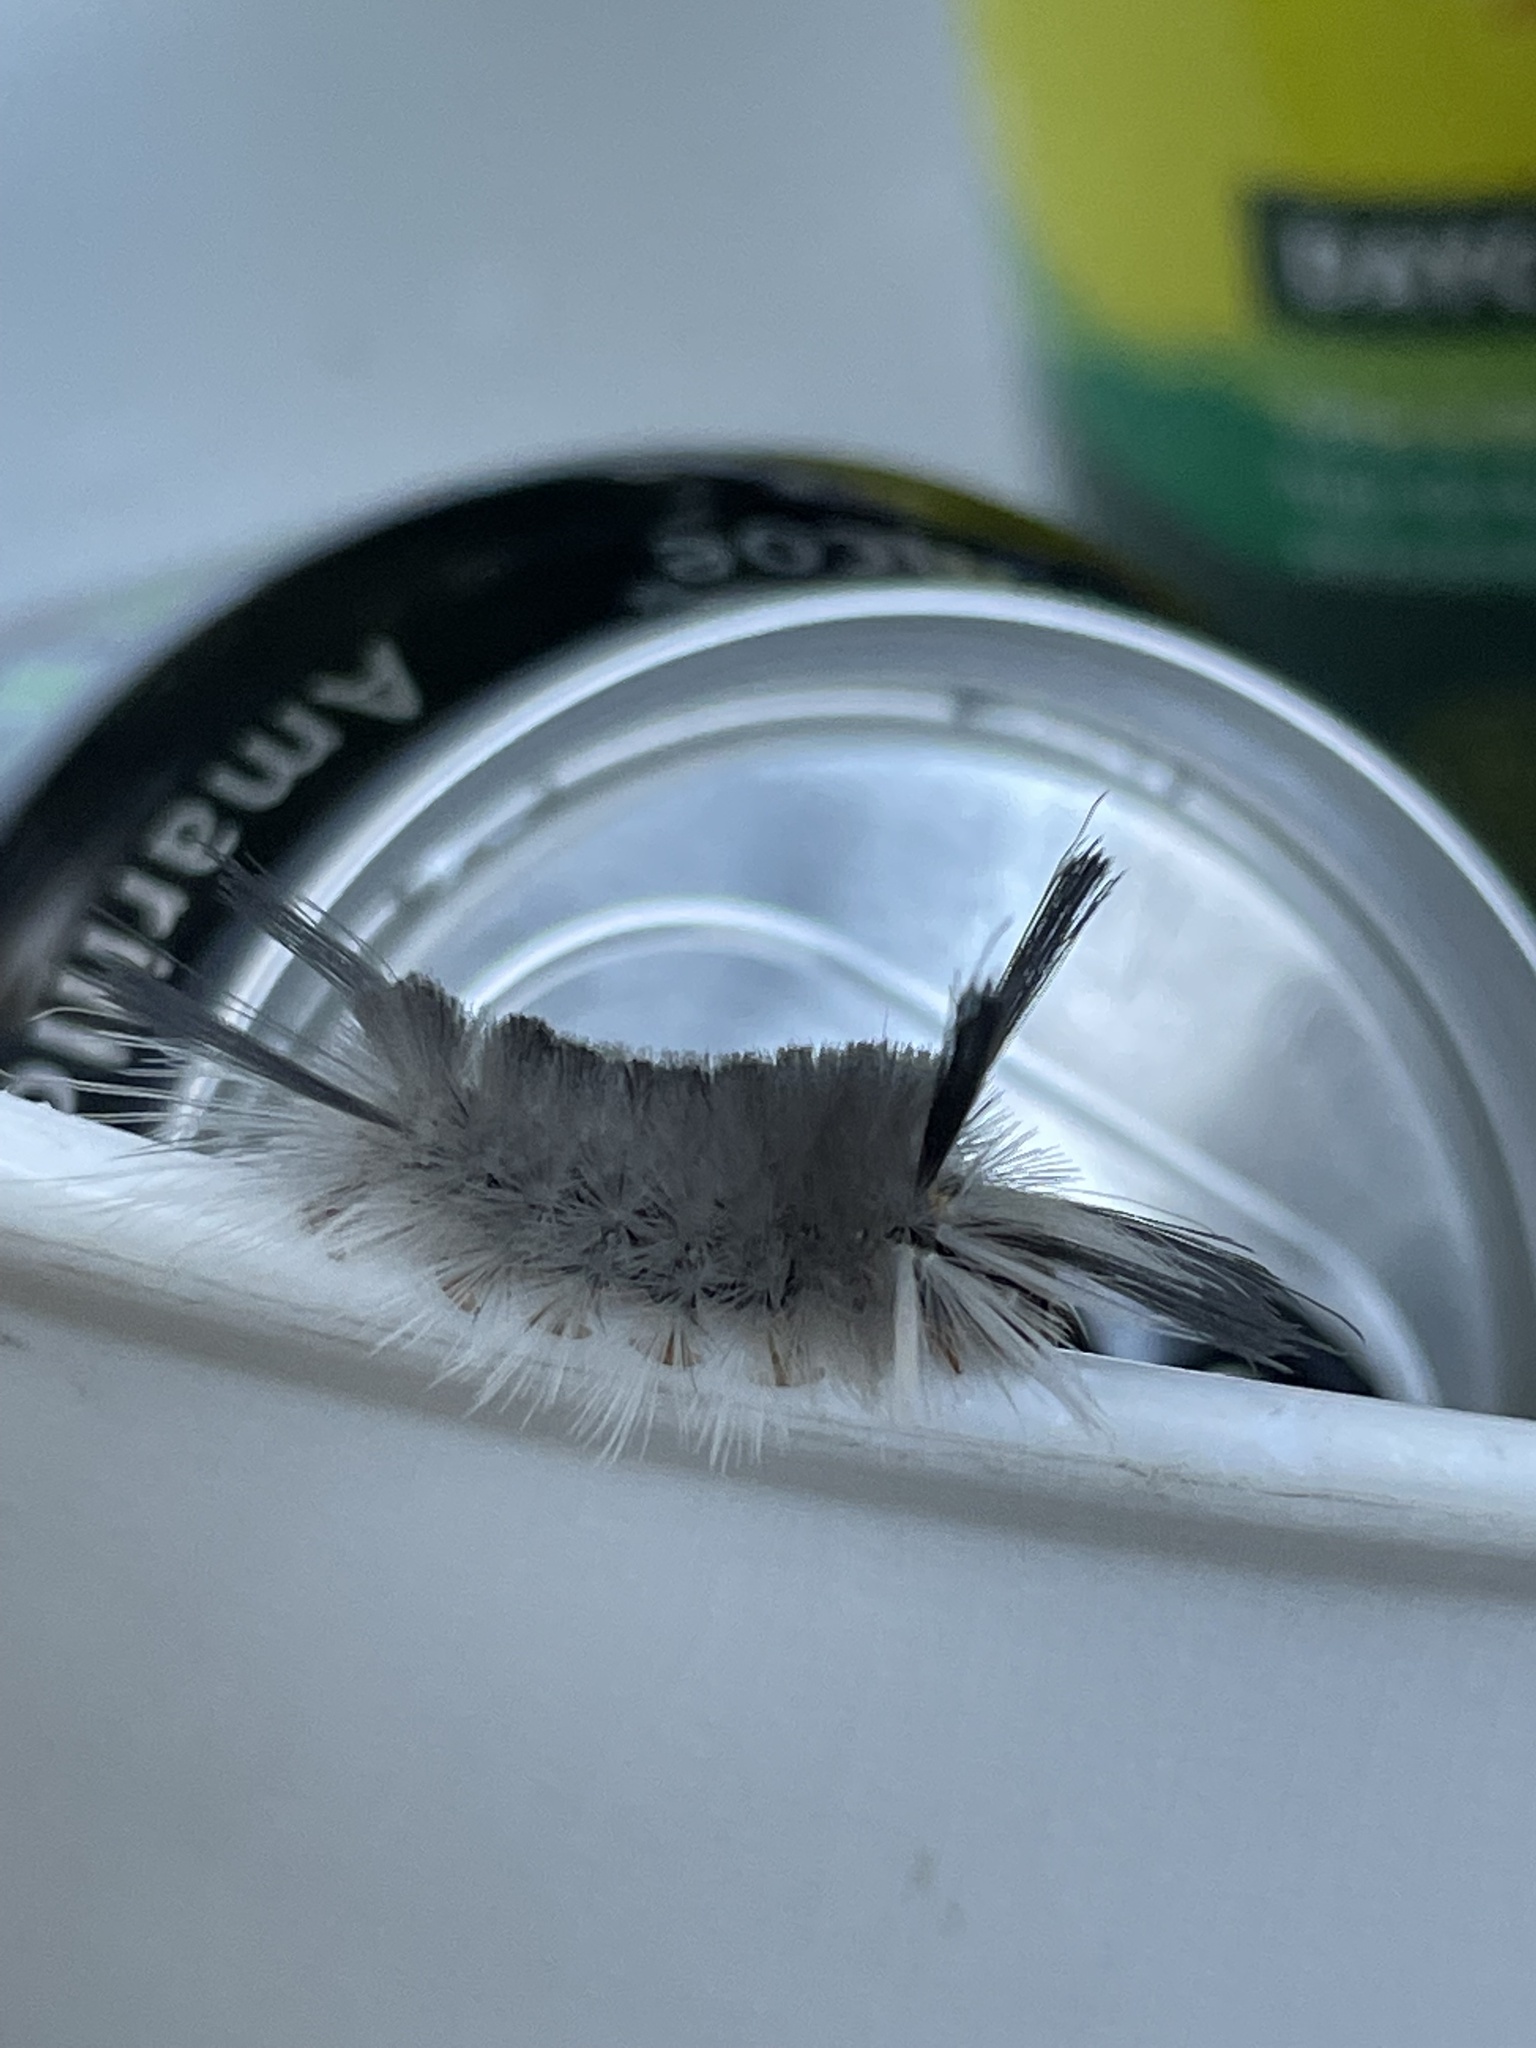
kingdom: Animalia
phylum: Arthropoda
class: Insecta
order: Lepidoptera
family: Erebidae
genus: Halysidota
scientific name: Halysidota tessellaris
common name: Banded tussock moth
